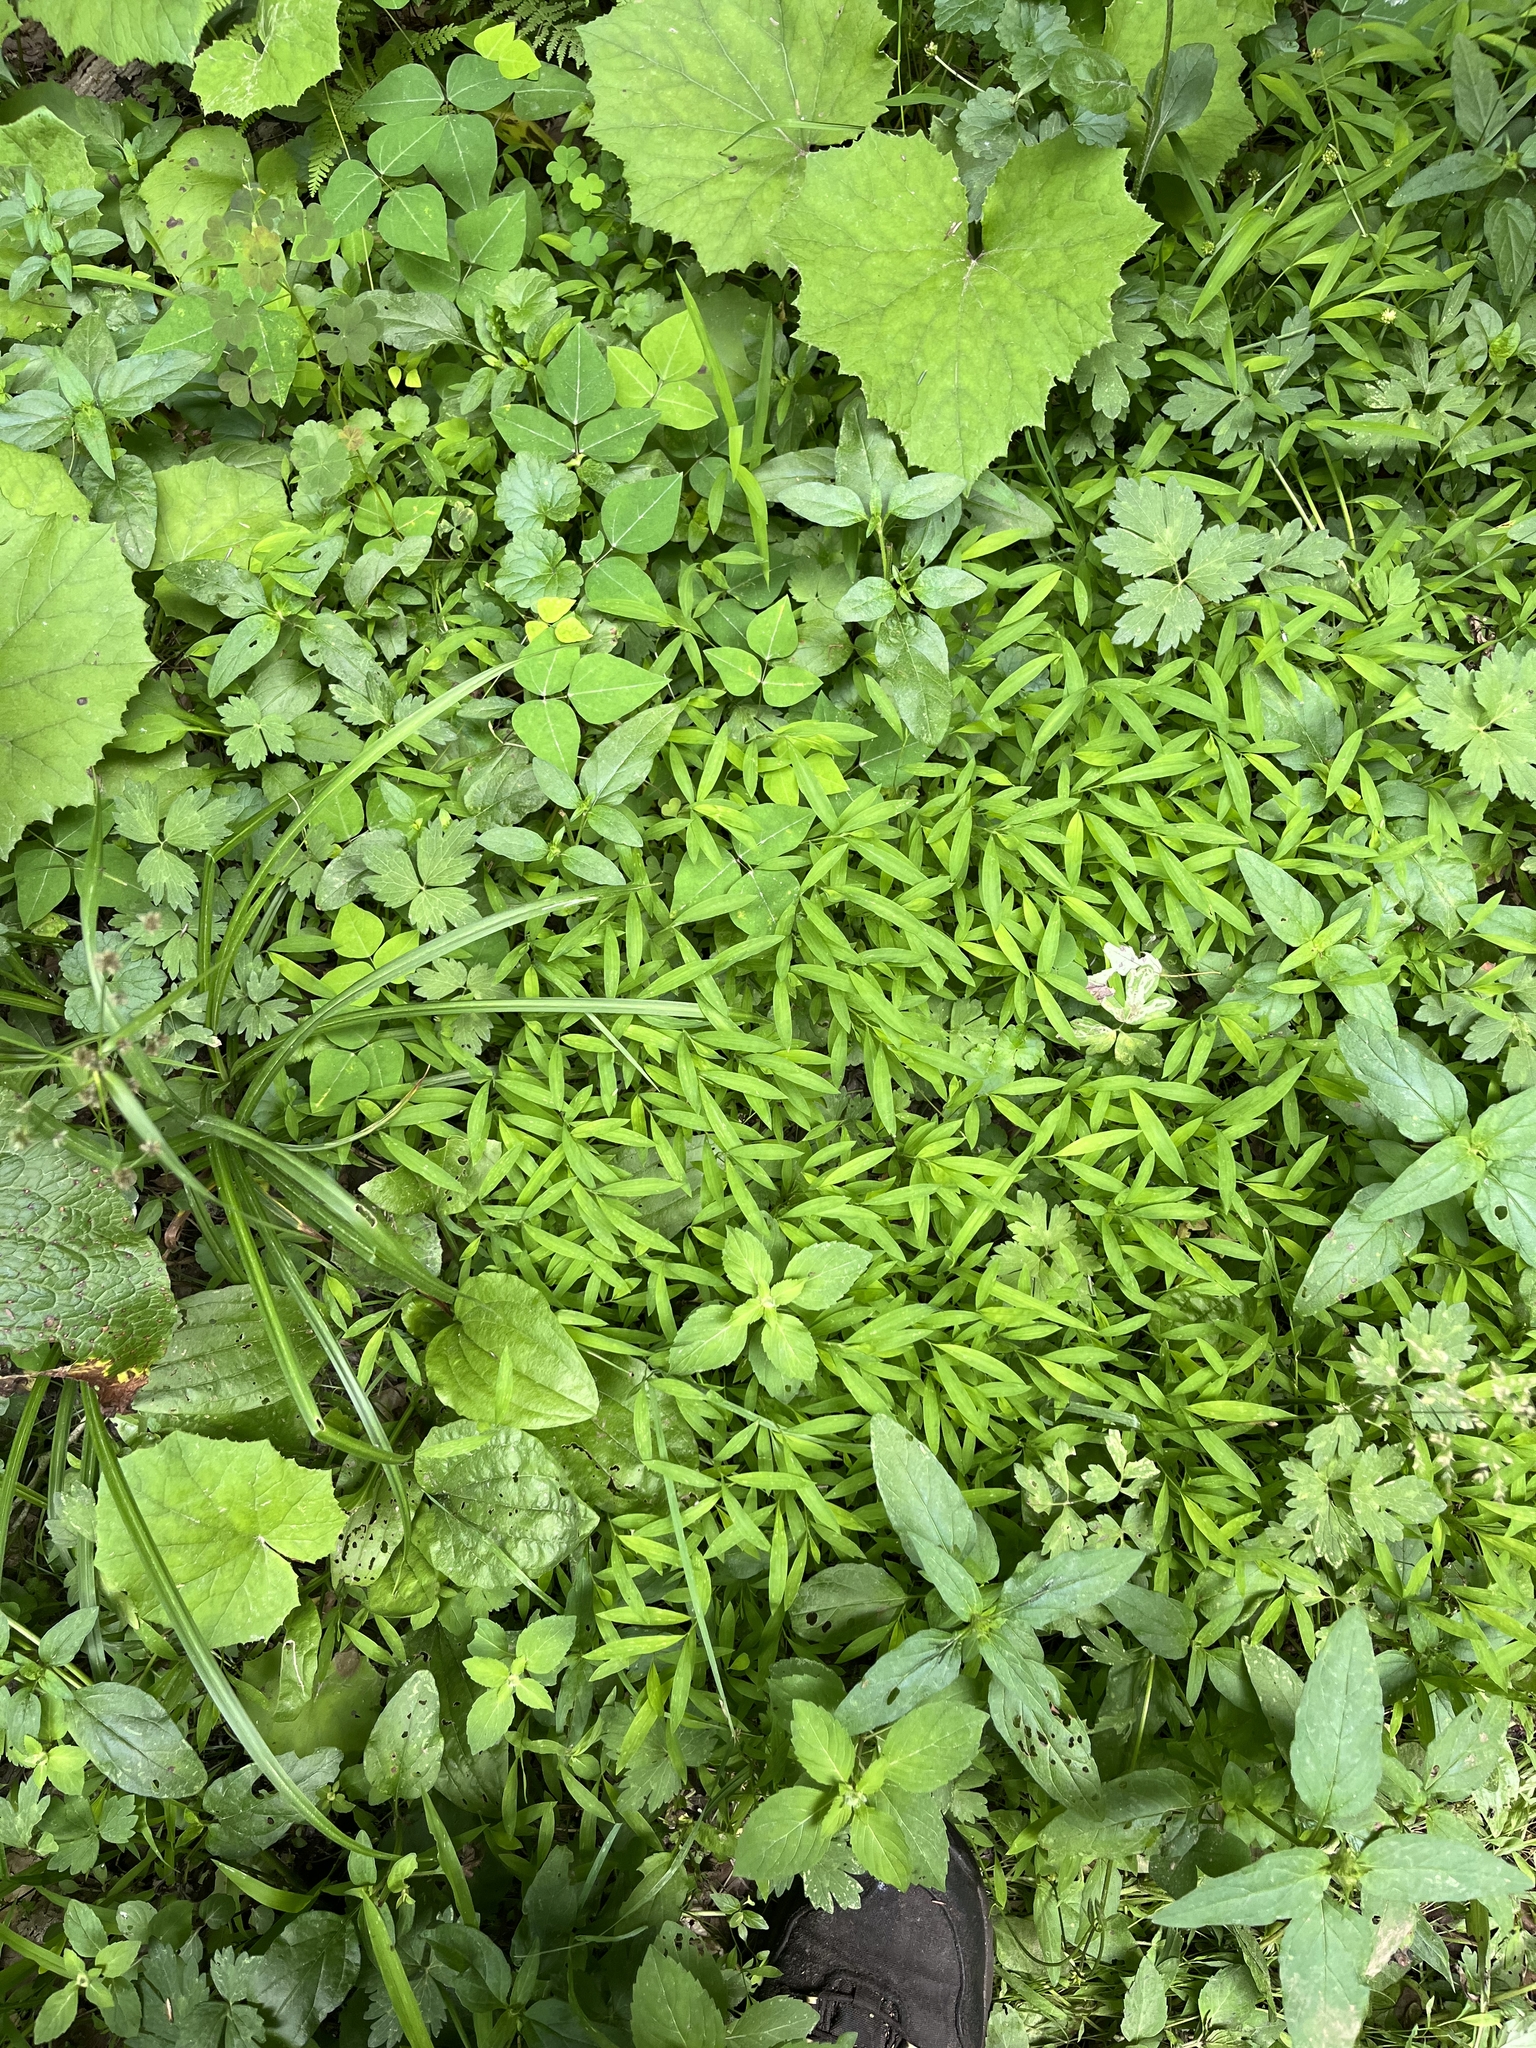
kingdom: Plantae
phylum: Tracheophyta
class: Liliopsida
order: Poales
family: Poaceae
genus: Microstegium
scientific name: Microstegium vimineum
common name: Japanese stiltgrass
